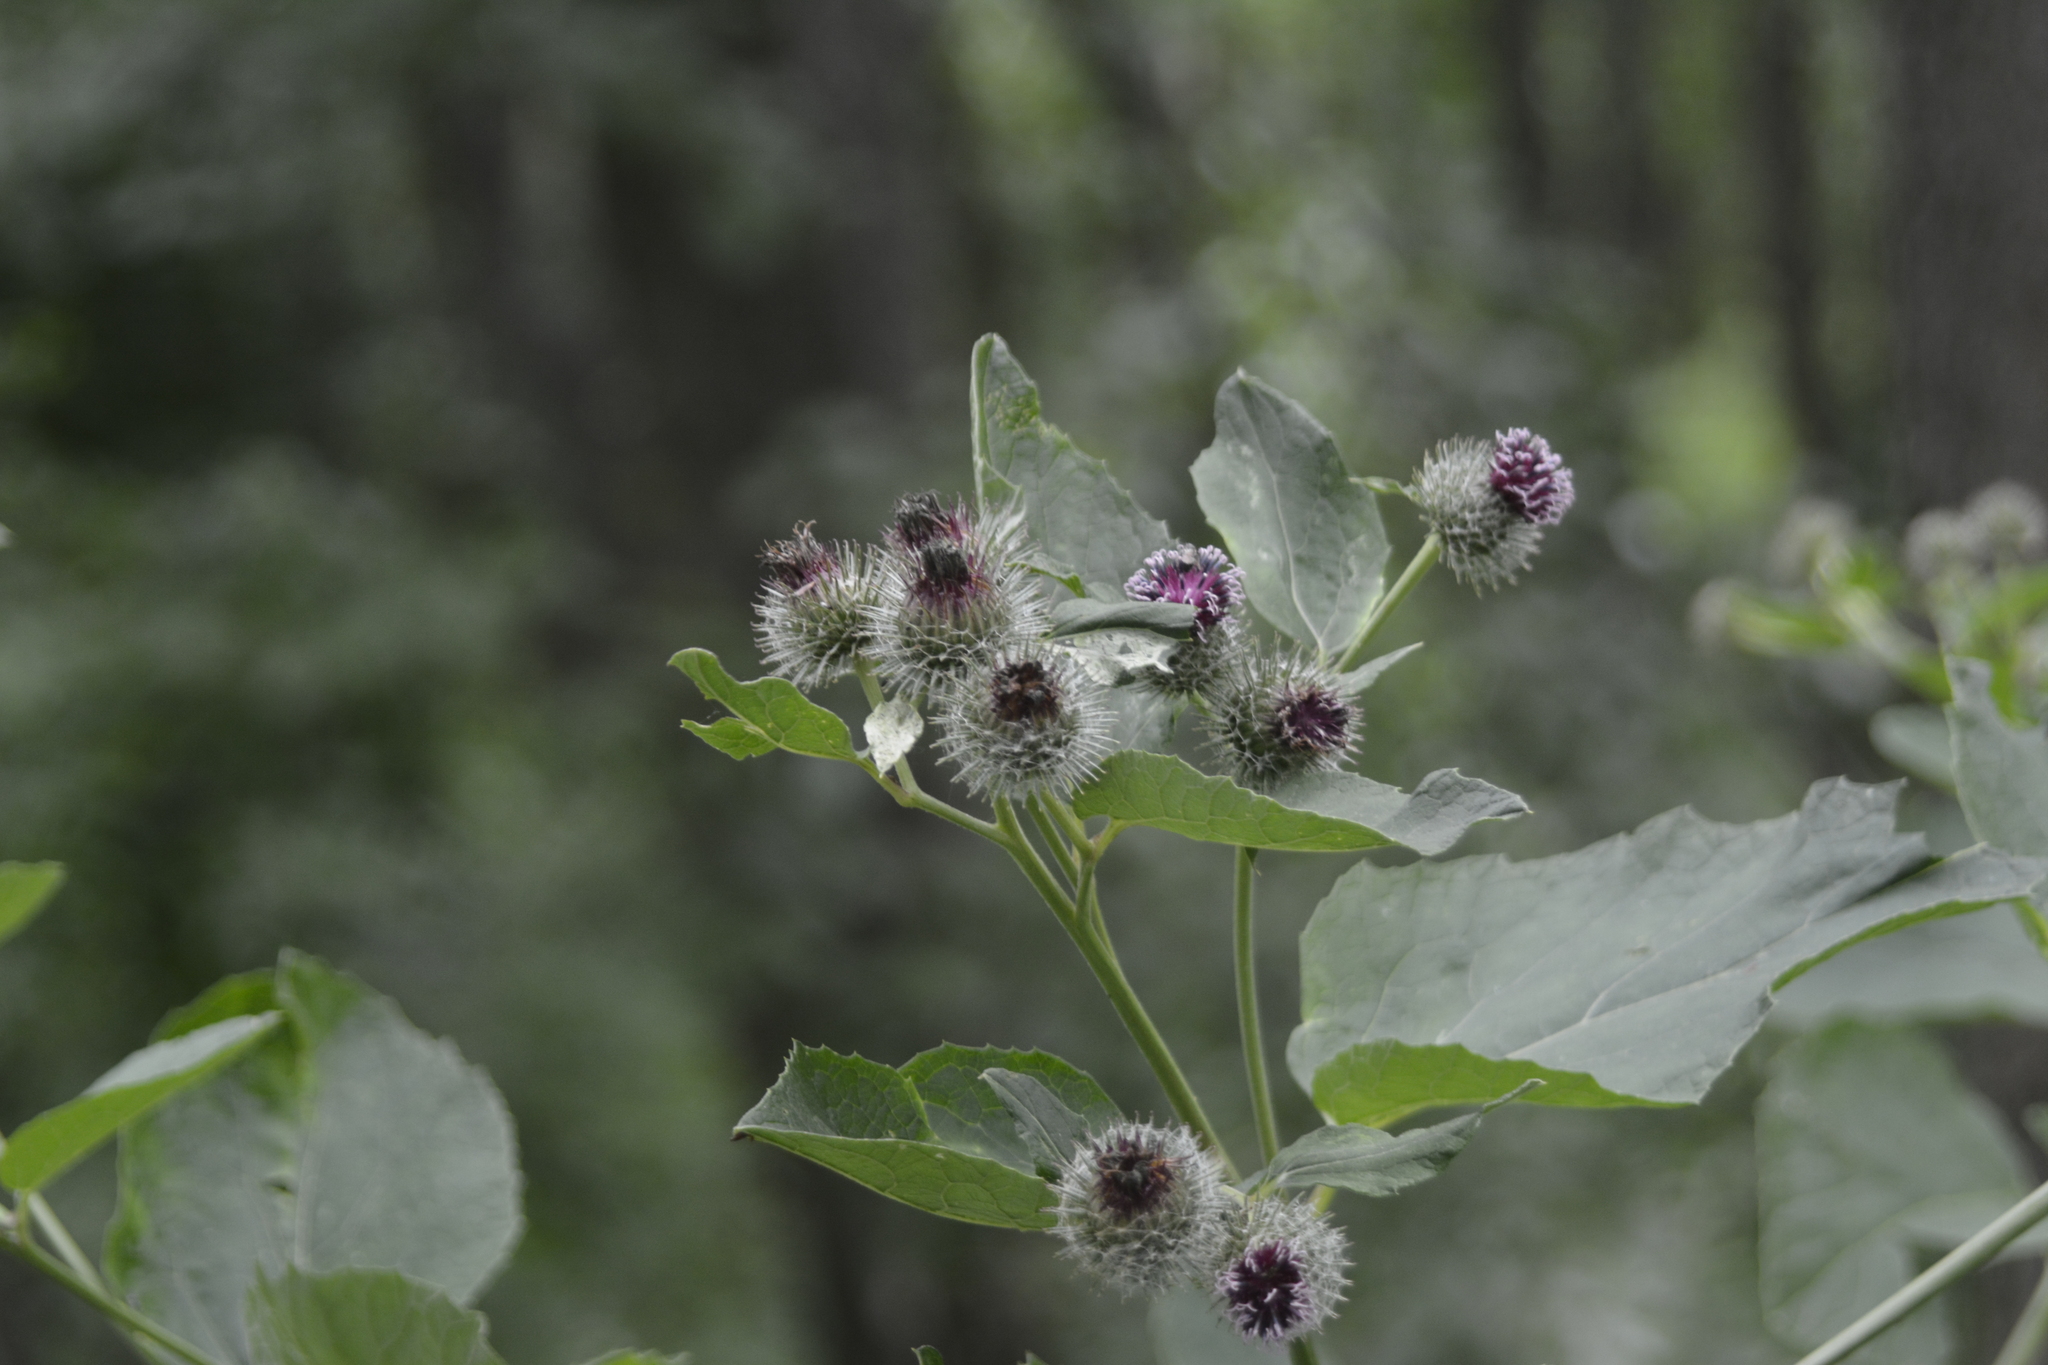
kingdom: Plantae
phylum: Tracheophyta
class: Magnoliopsida
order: Asterales
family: Asteraceae
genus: Arctium
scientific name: Arctium tomentosum
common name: Woolly burdock
